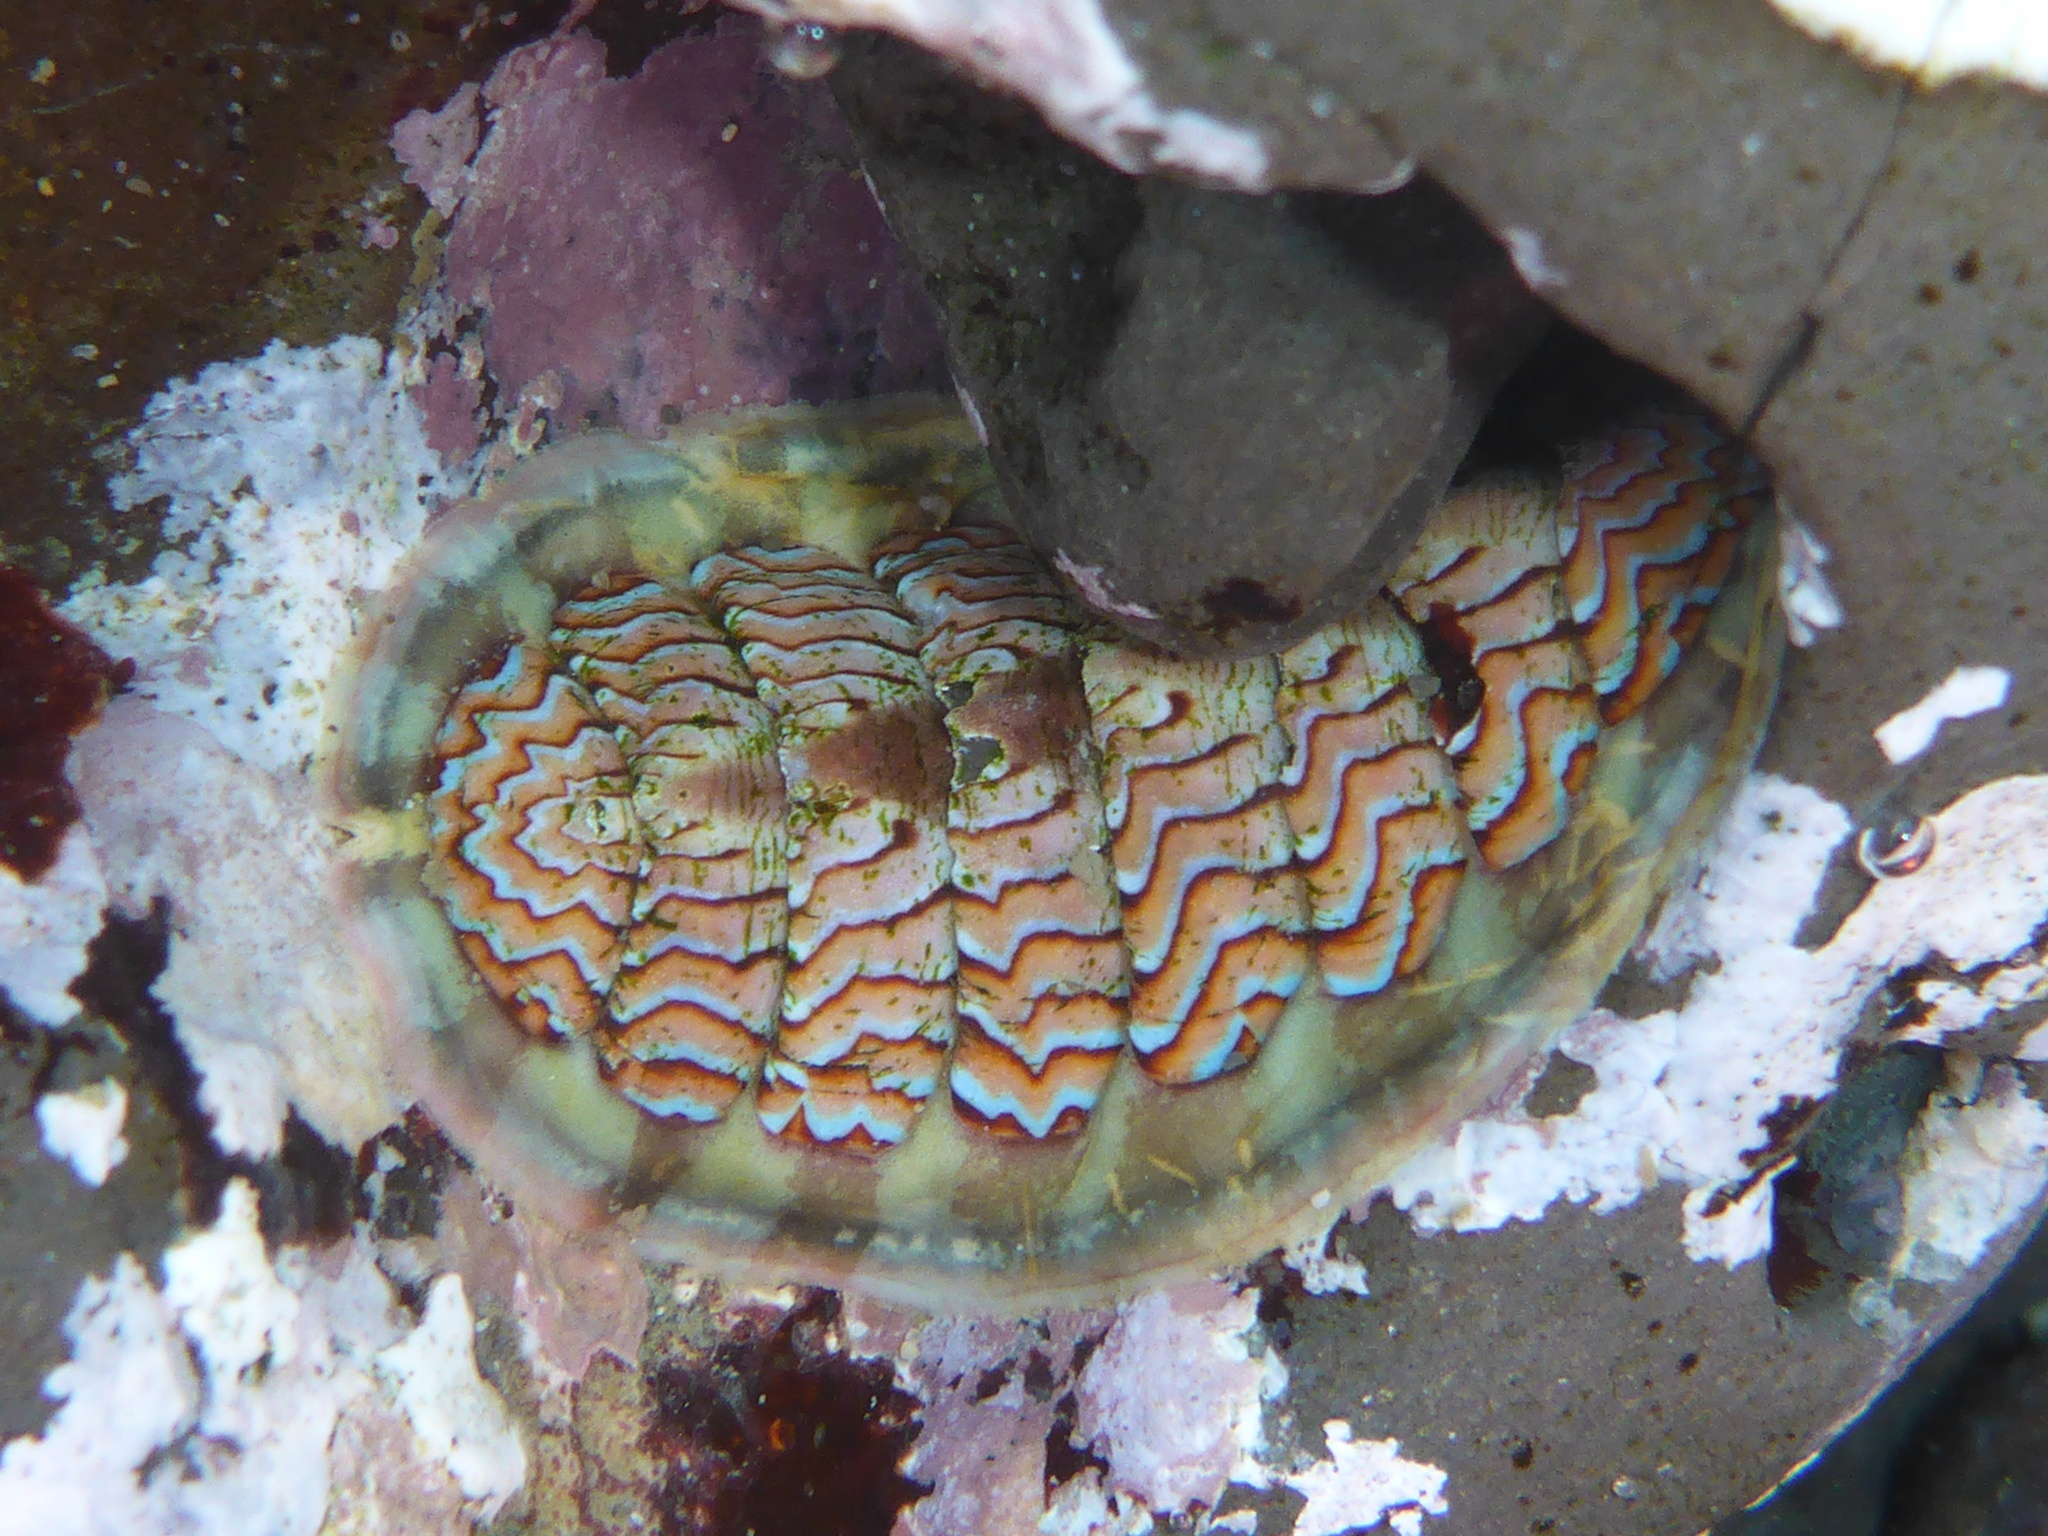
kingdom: Animalia
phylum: Mollusca
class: Polyplacophora
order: Chitonida
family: Tonicellidae
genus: Tonicella
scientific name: Tonicella lokii
